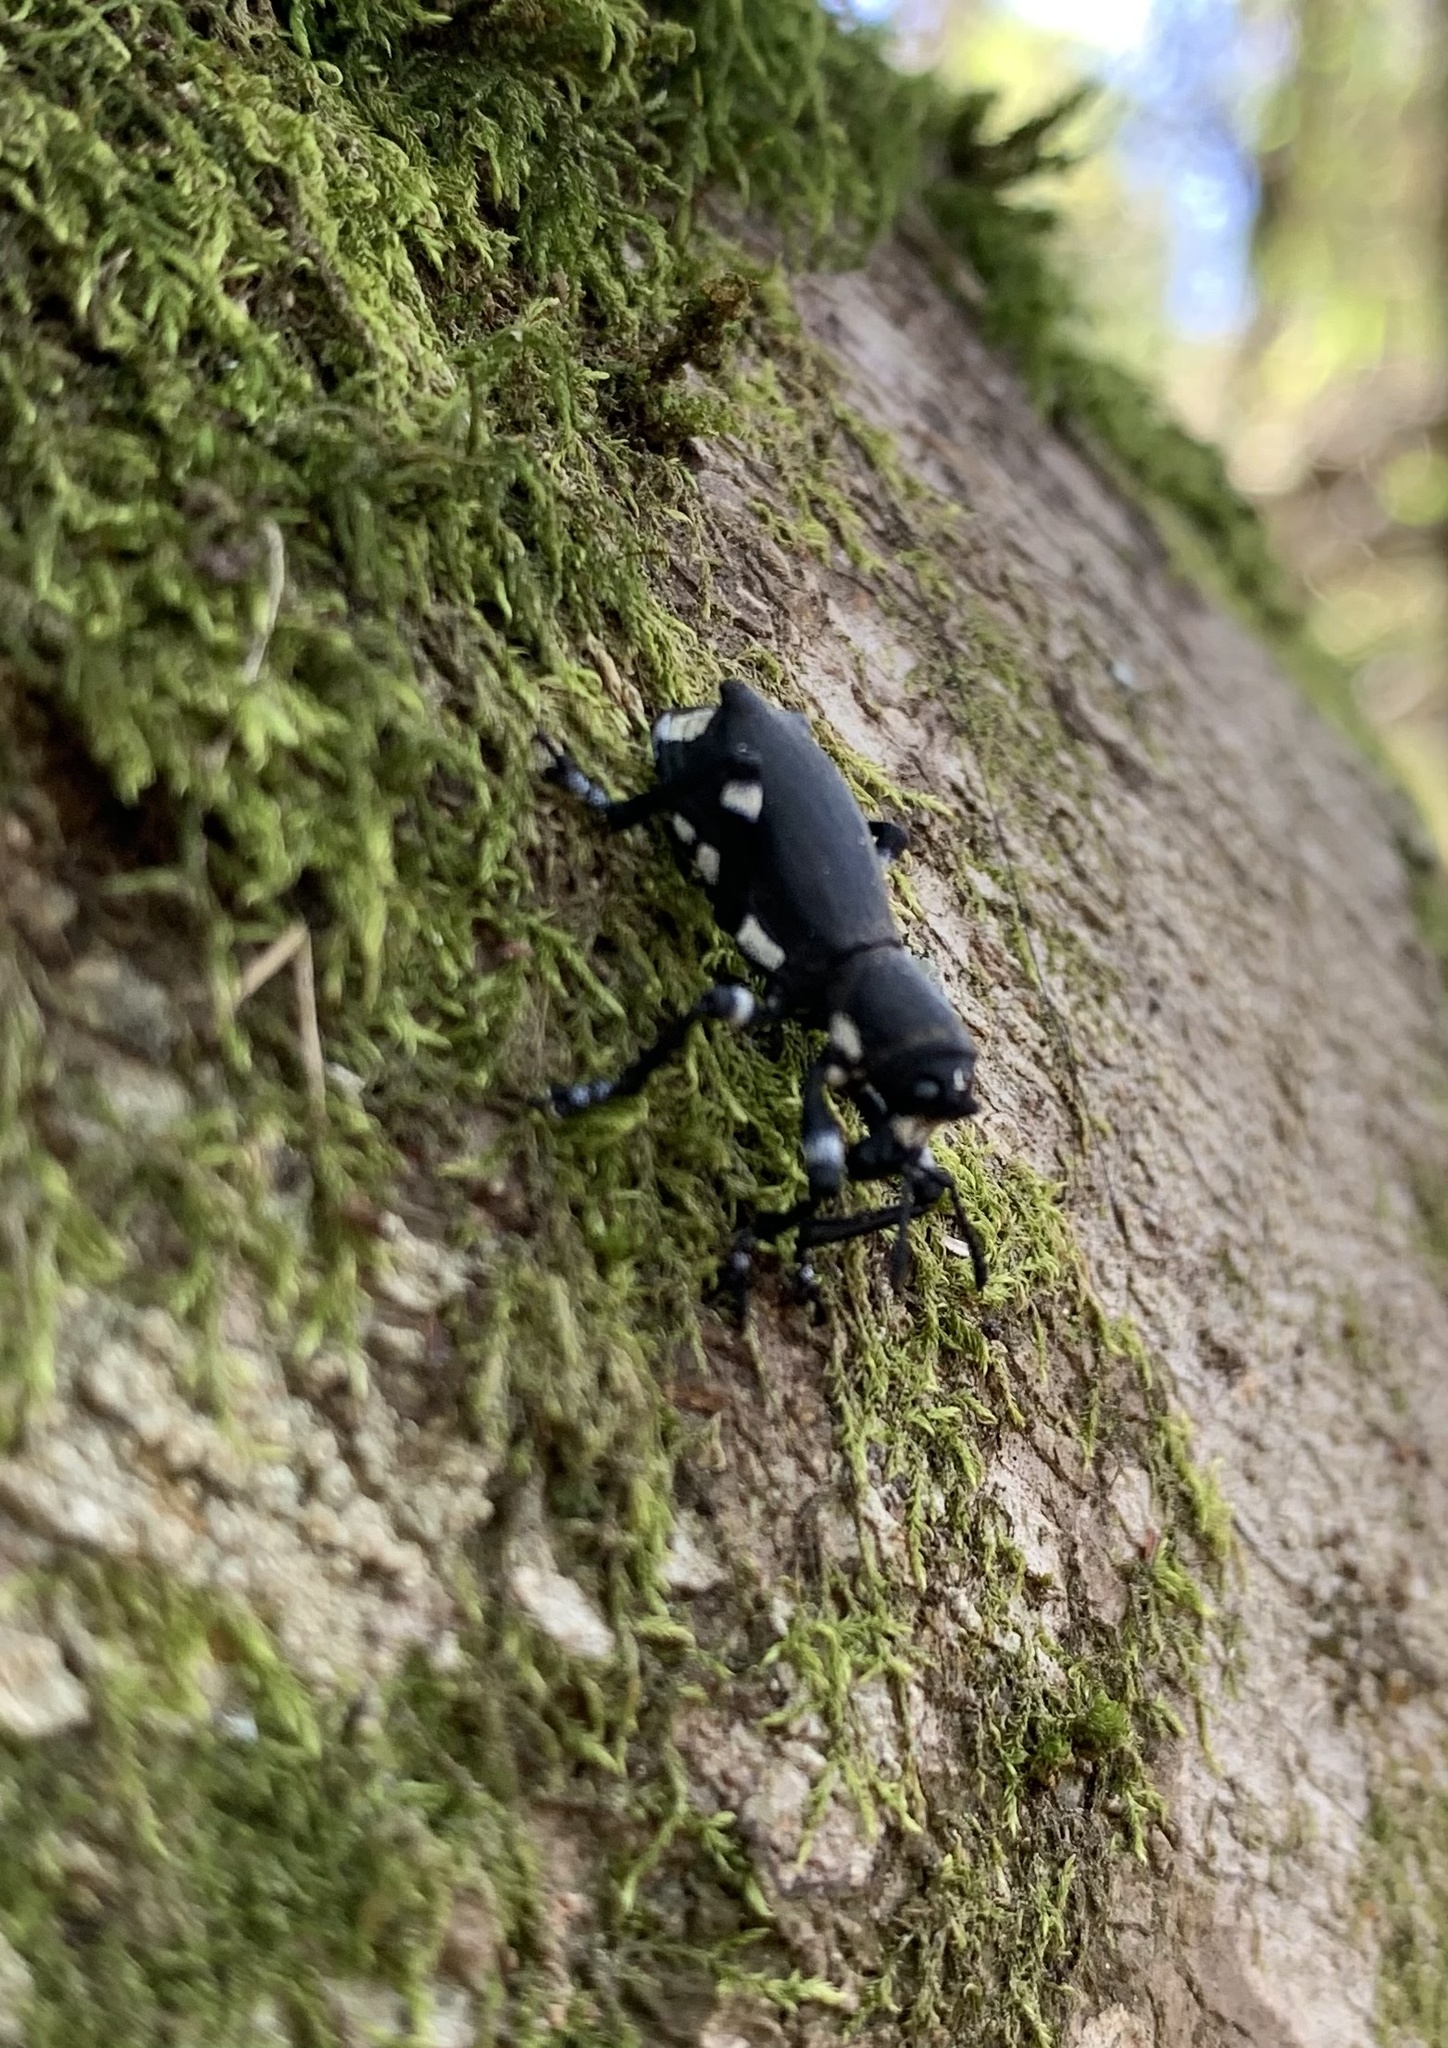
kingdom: Animalia
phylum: Arthropoda
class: Insecta
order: Coleoptera
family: Curculionidae
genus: Aegorhinus
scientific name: Aegorhinus
